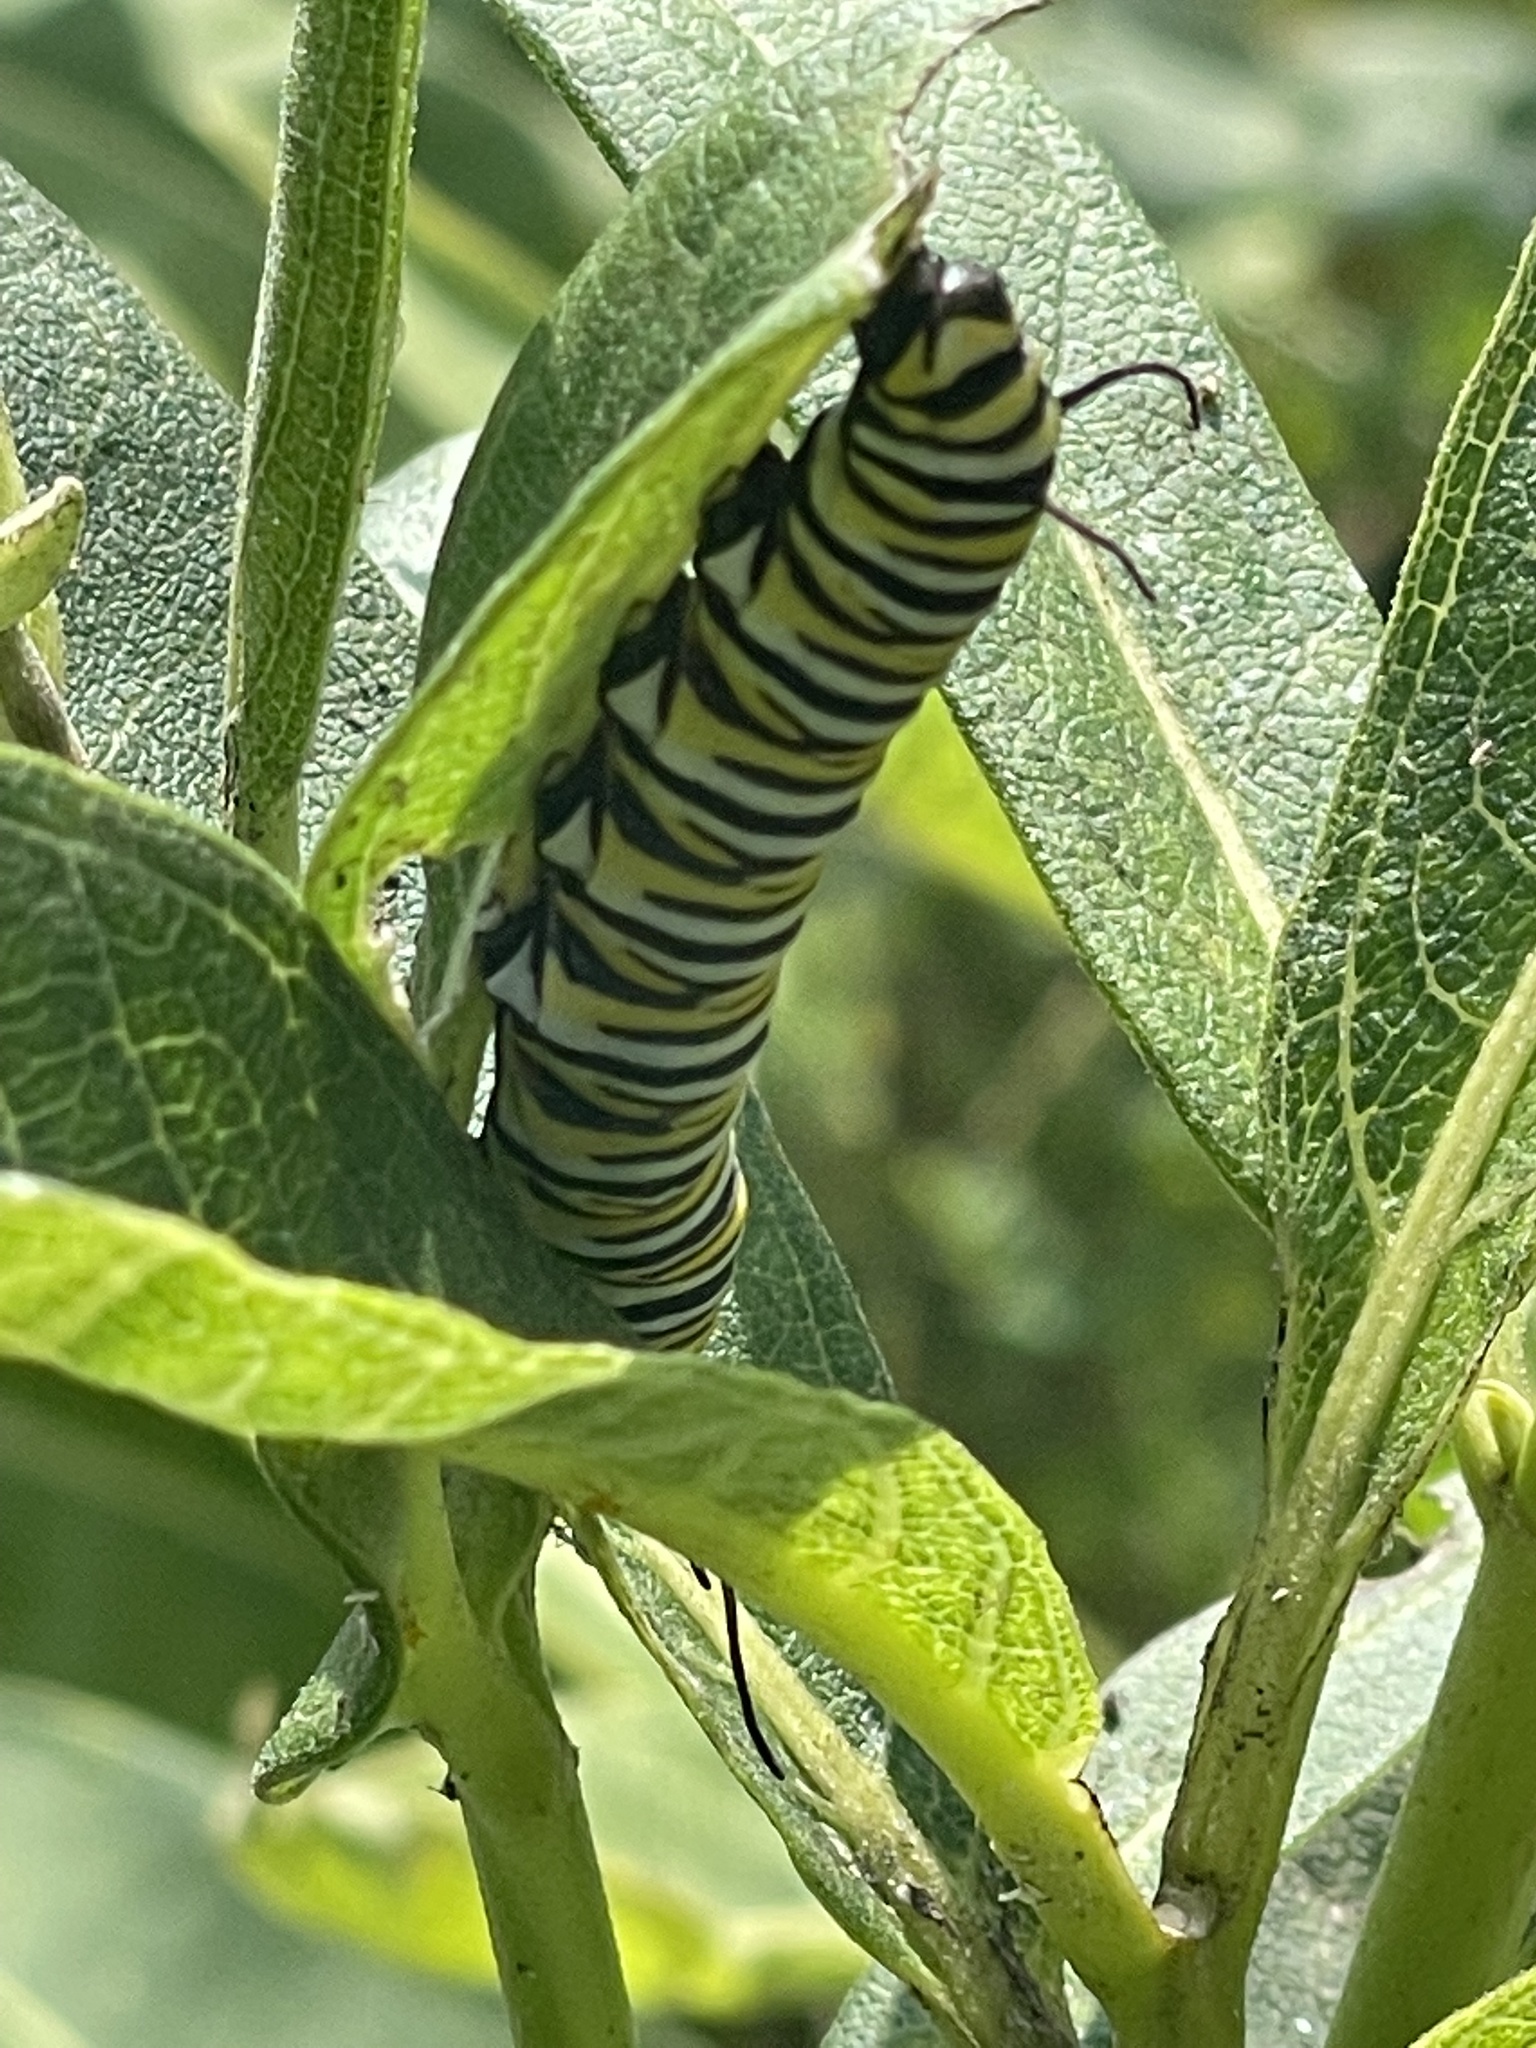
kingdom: Animalia
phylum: Arthropoda
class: Insecta
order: Lepidoptera
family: Nymphalidae
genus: Danaus
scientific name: Danaus plexippus
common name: Monarch
